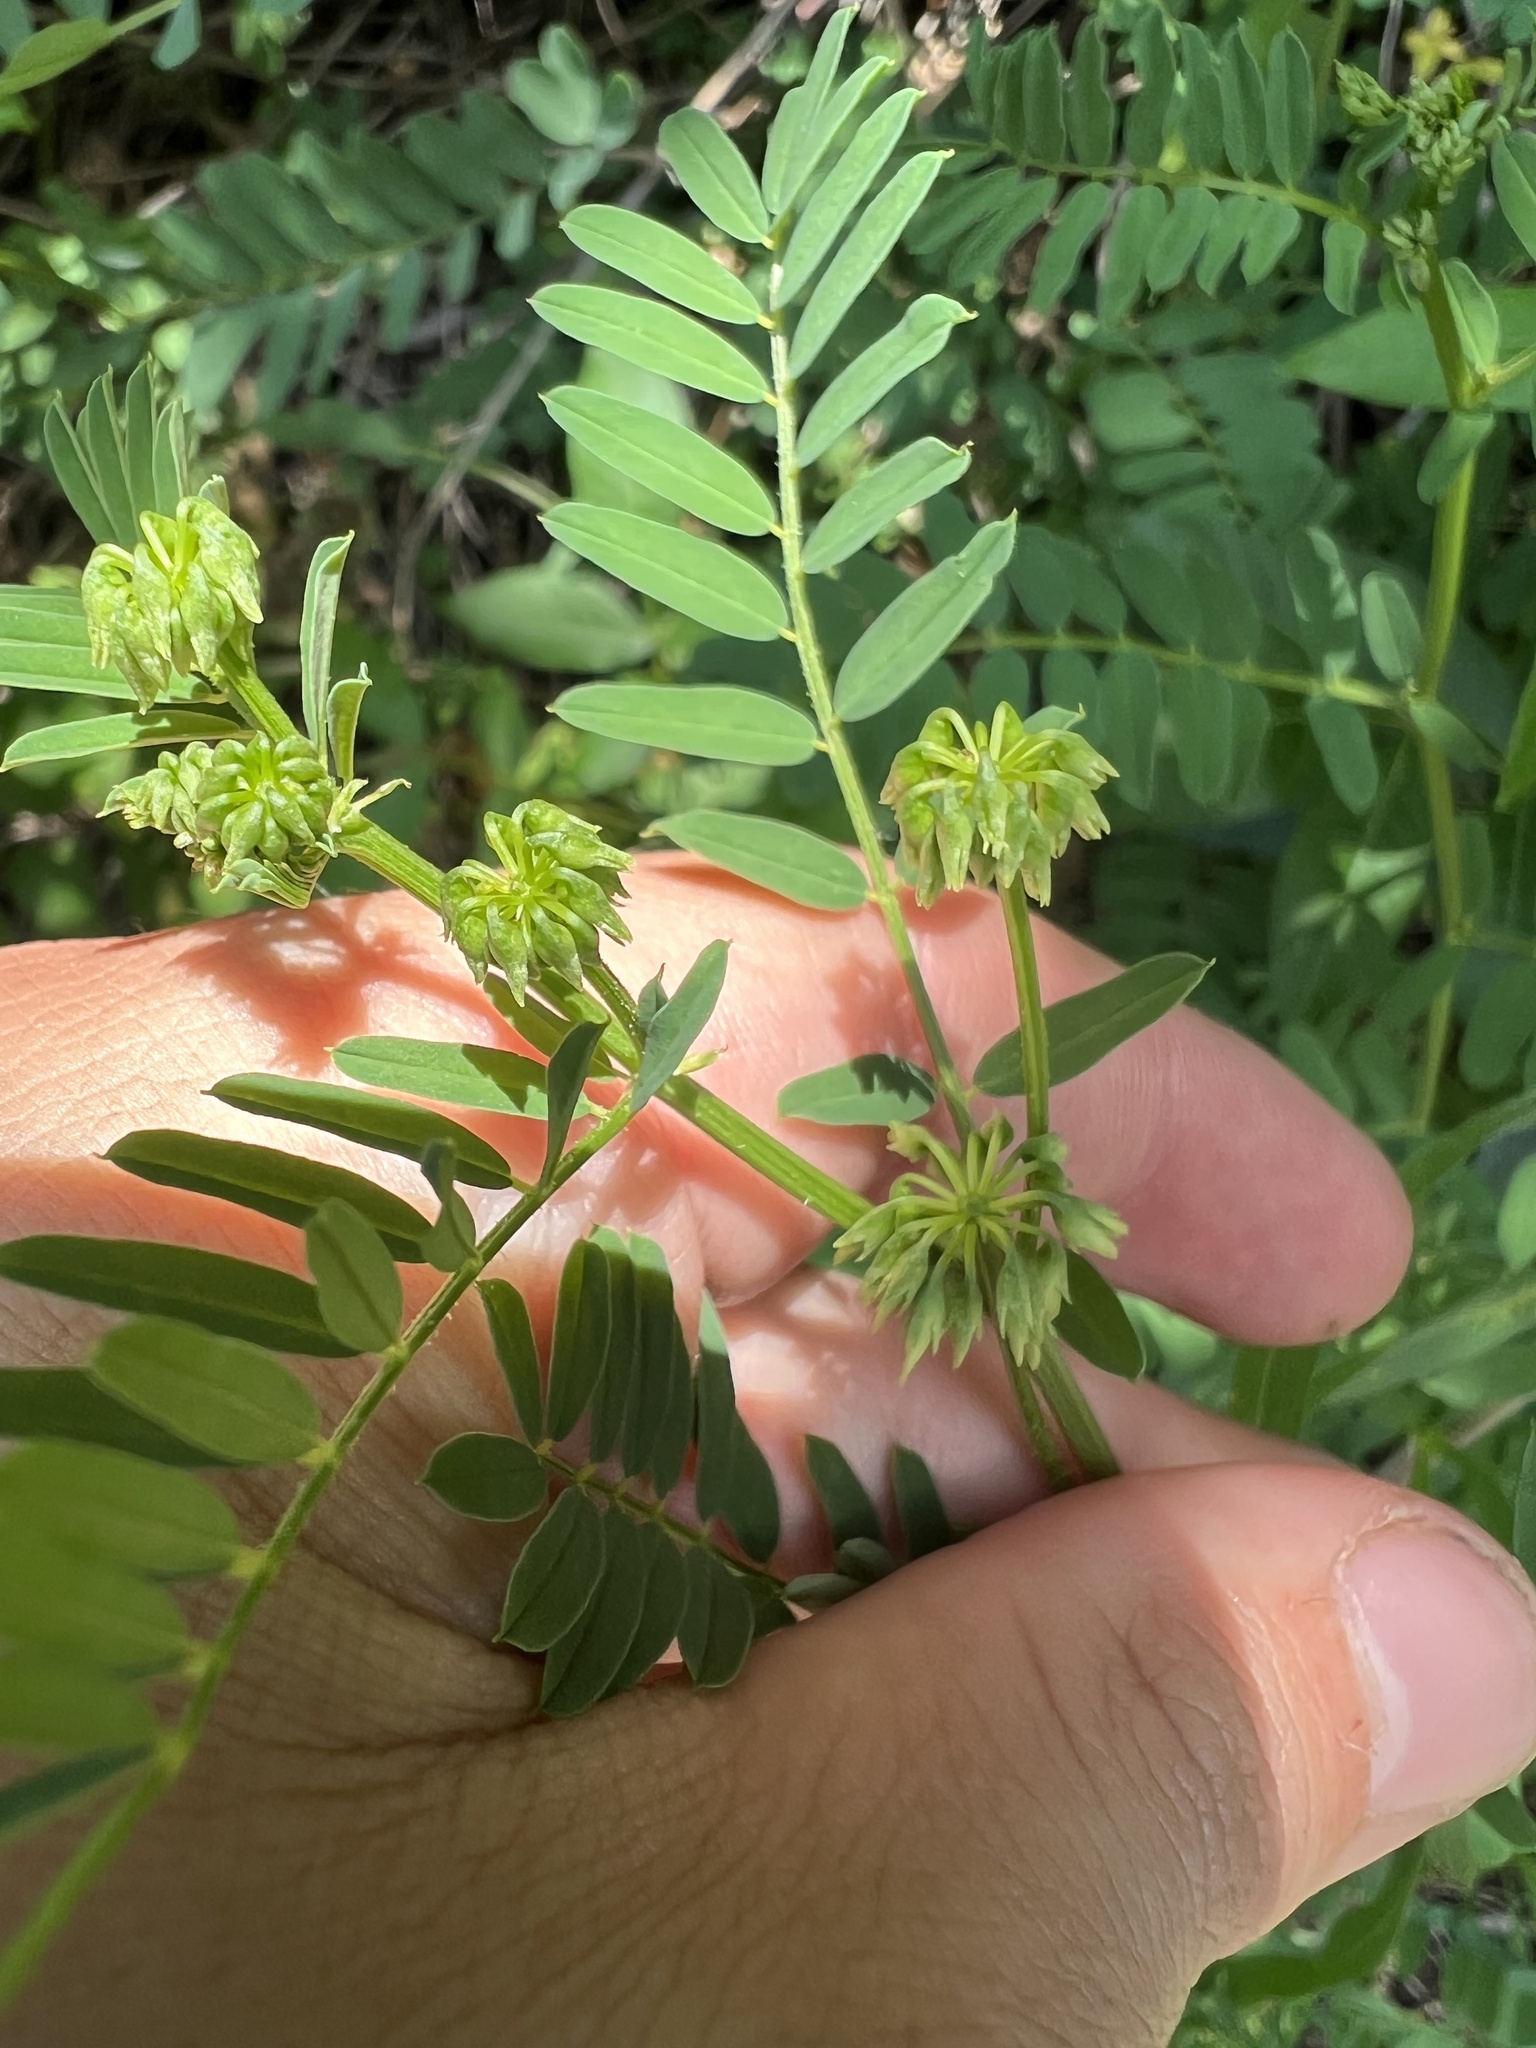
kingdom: Plantae
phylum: Tracheophyta
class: Magnoliopsida
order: Fabales
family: Fabaceae
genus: Coronilla
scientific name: Coronilla varia
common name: Crownvetch
